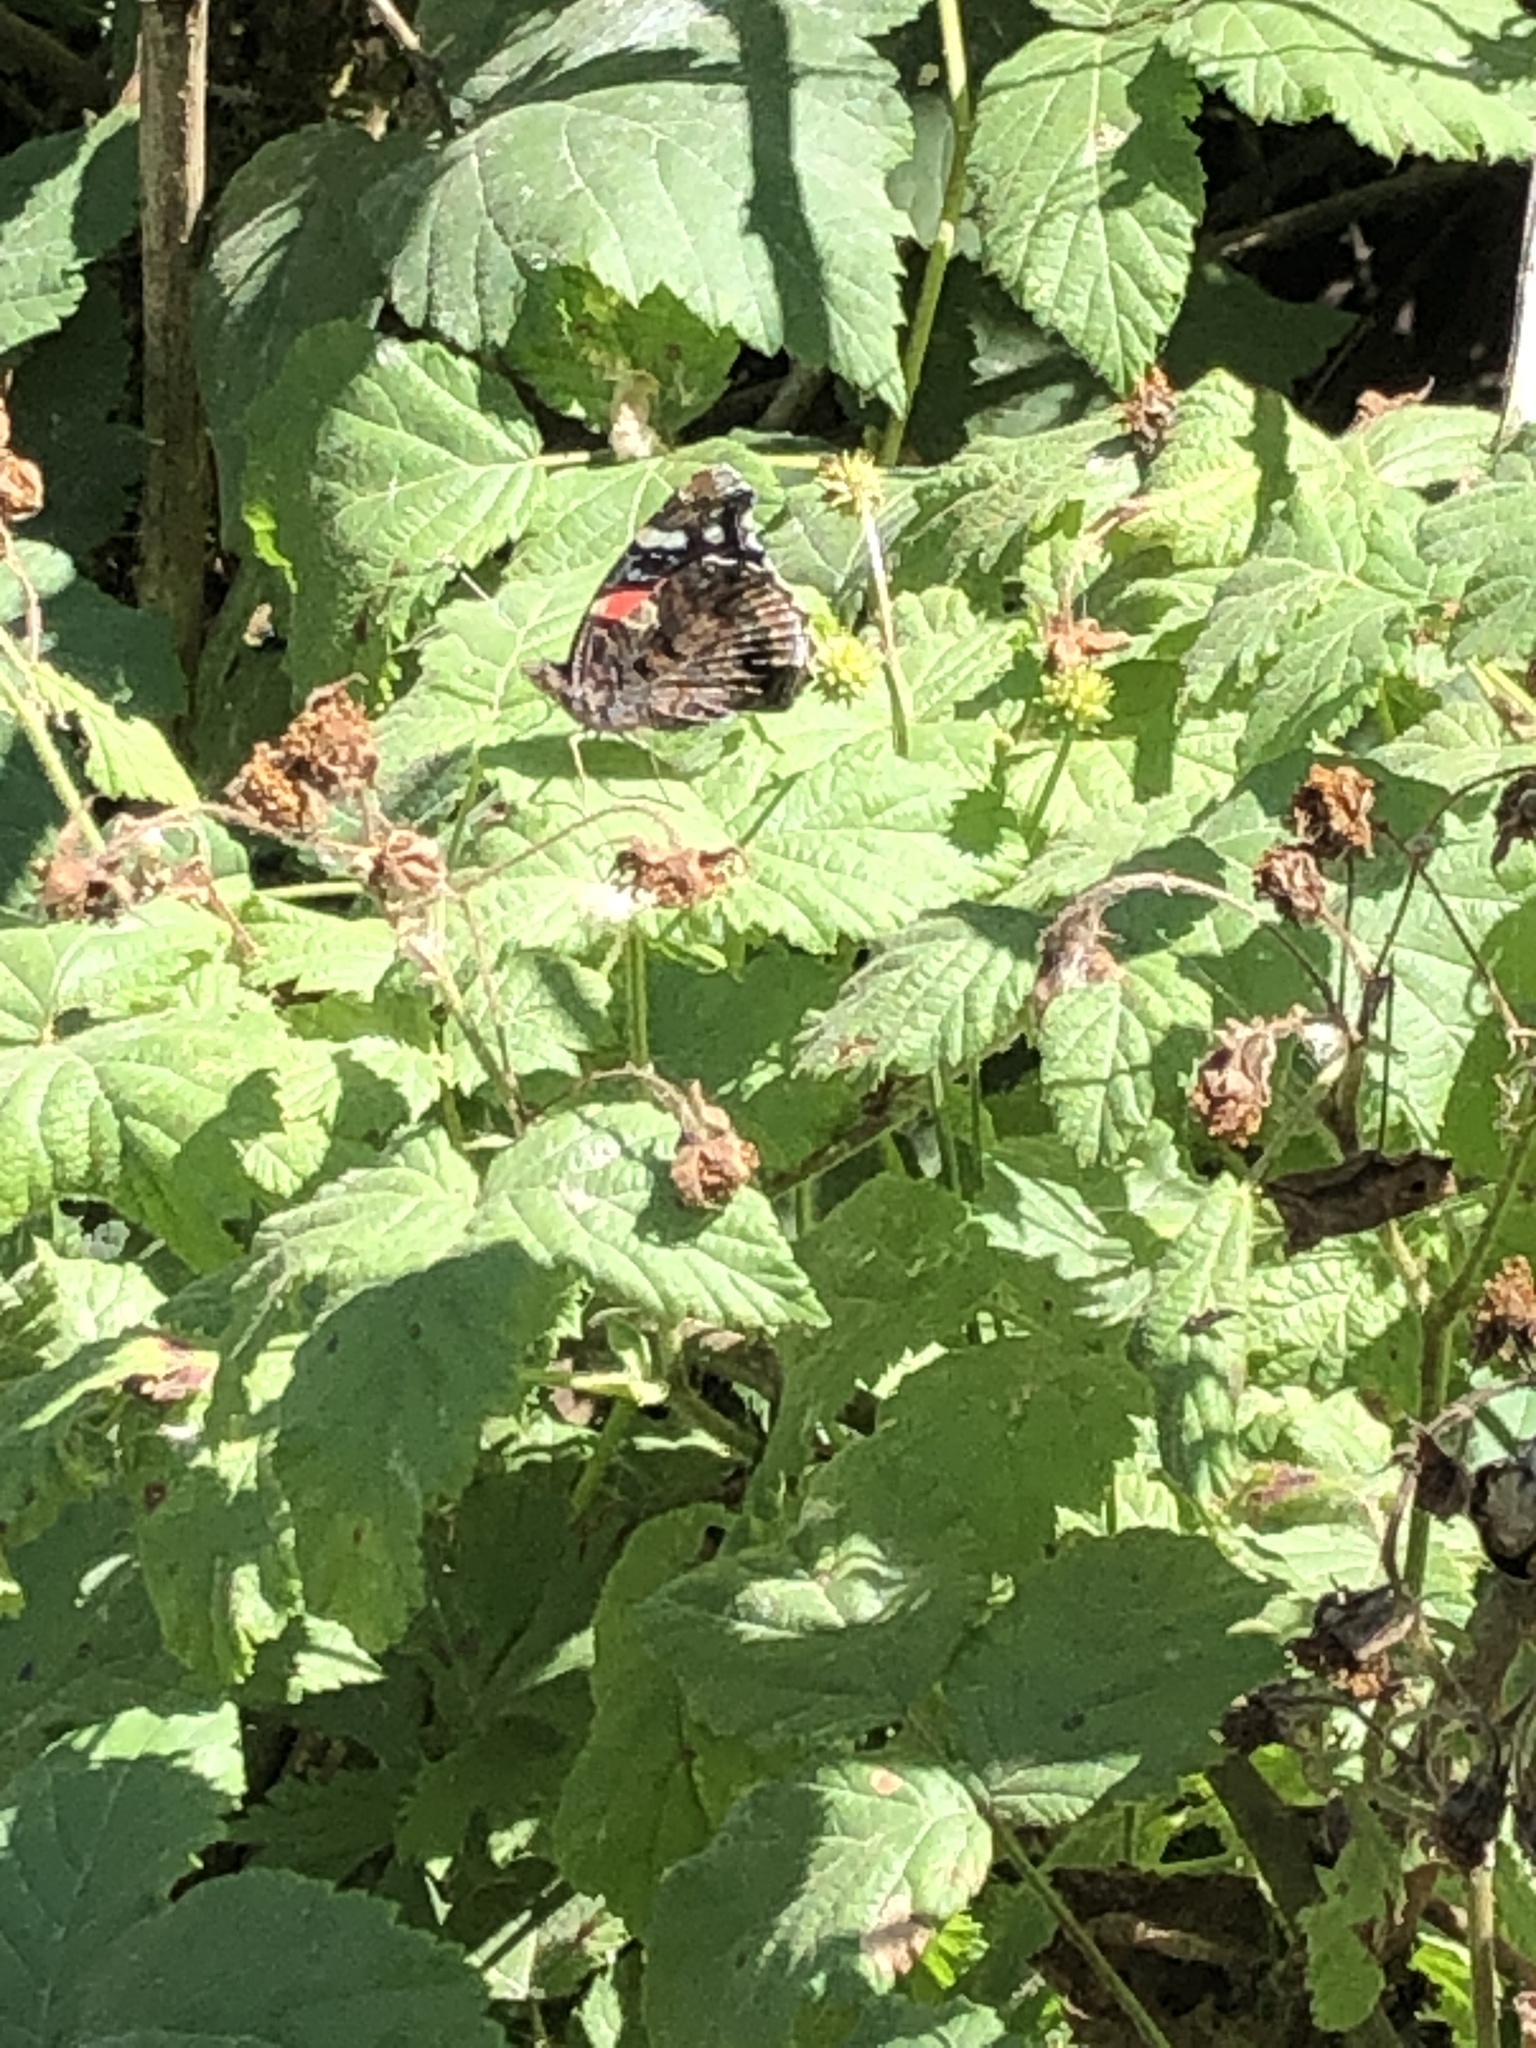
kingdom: Animalia
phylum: Arthropoda
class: Insecta
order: Lepidoptera
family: Nymphalidae
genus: Vanessa
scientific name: Vanessa atalanta
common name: Red admiral
